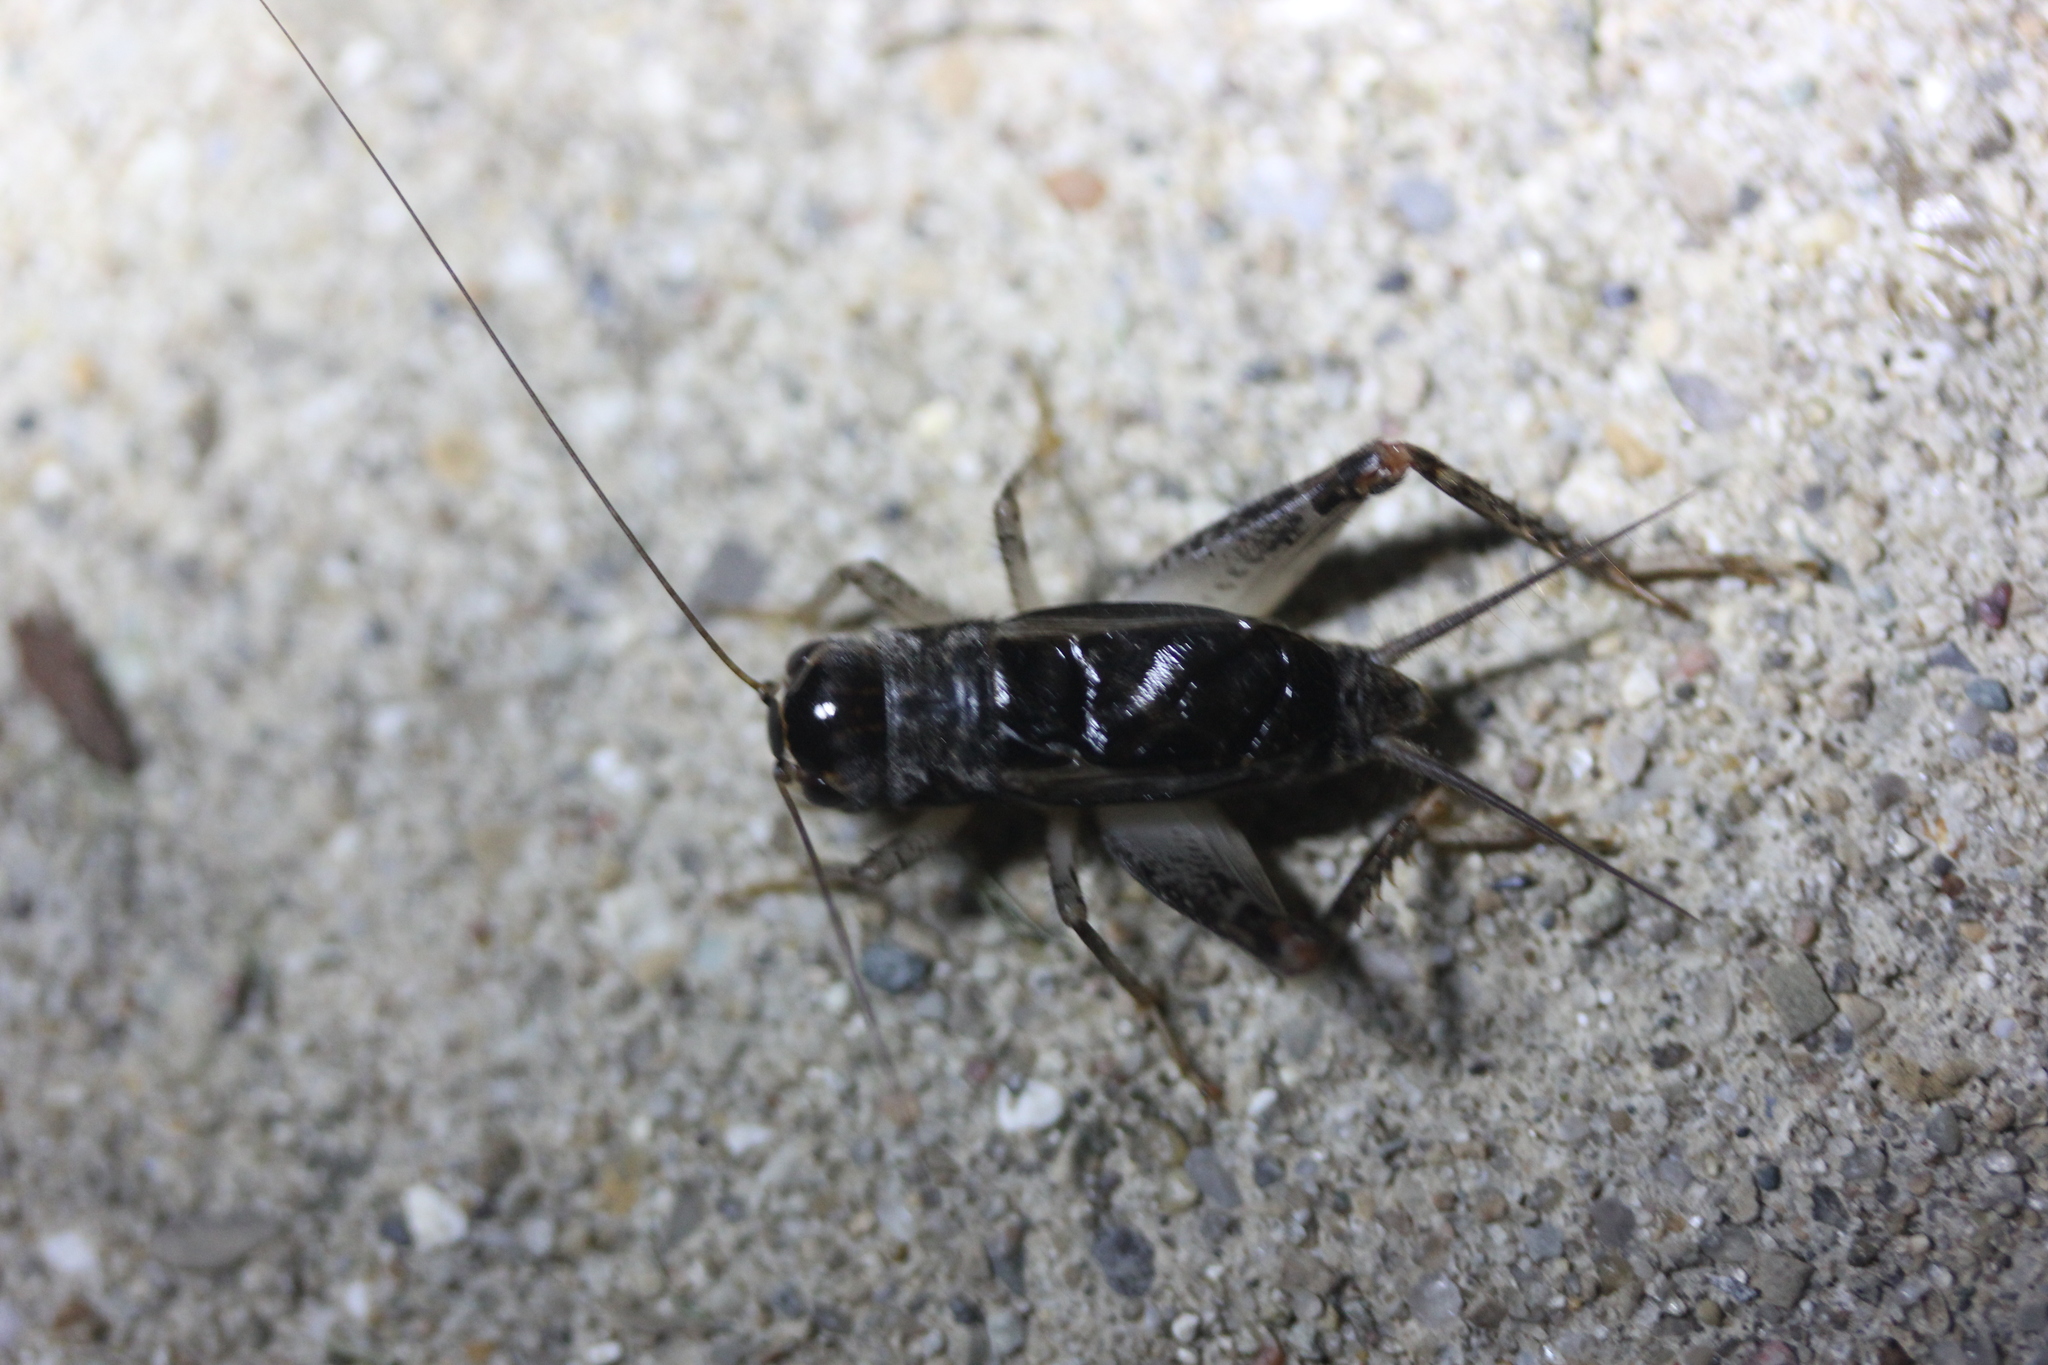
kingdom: Animalia
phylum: Arthropoda
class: Insecta
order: Orthoptera
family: Gryllidae
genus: Velarifictorus
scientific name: Velarifictorus micado
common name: Japanese burrowing cricket
